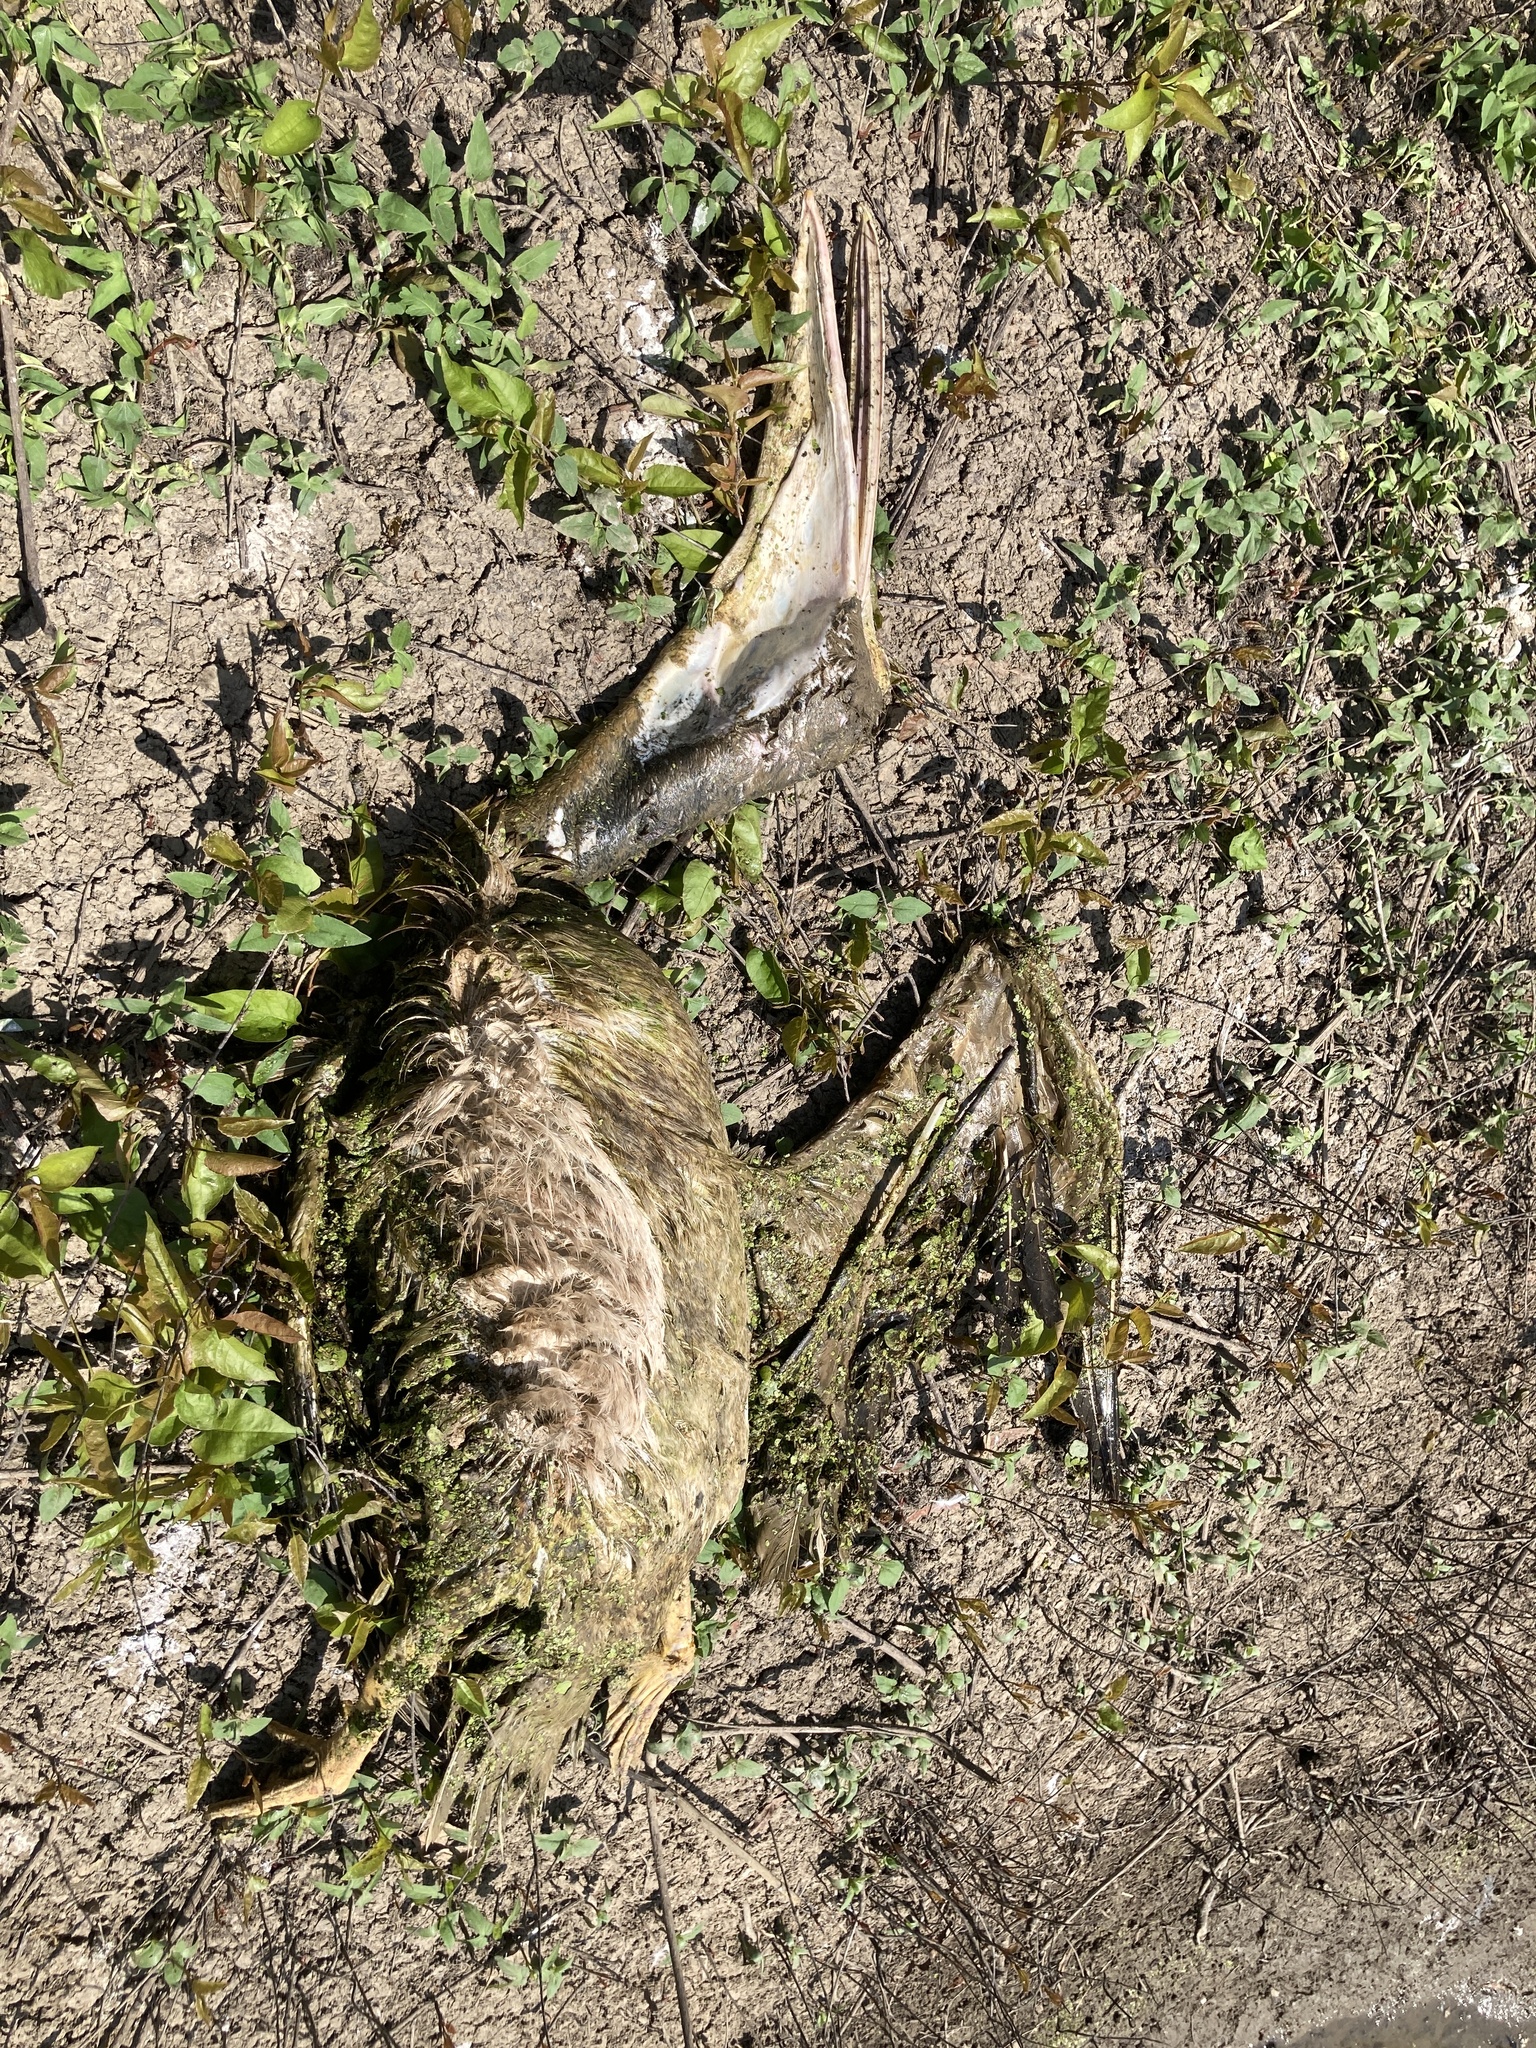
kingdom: Animalia
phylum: Chordata
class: Aves
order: Pelecaniformes
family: Pelecanidae
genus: Pelecanus
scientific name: Pelecanus erythrorhynchos
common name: American white pelican
